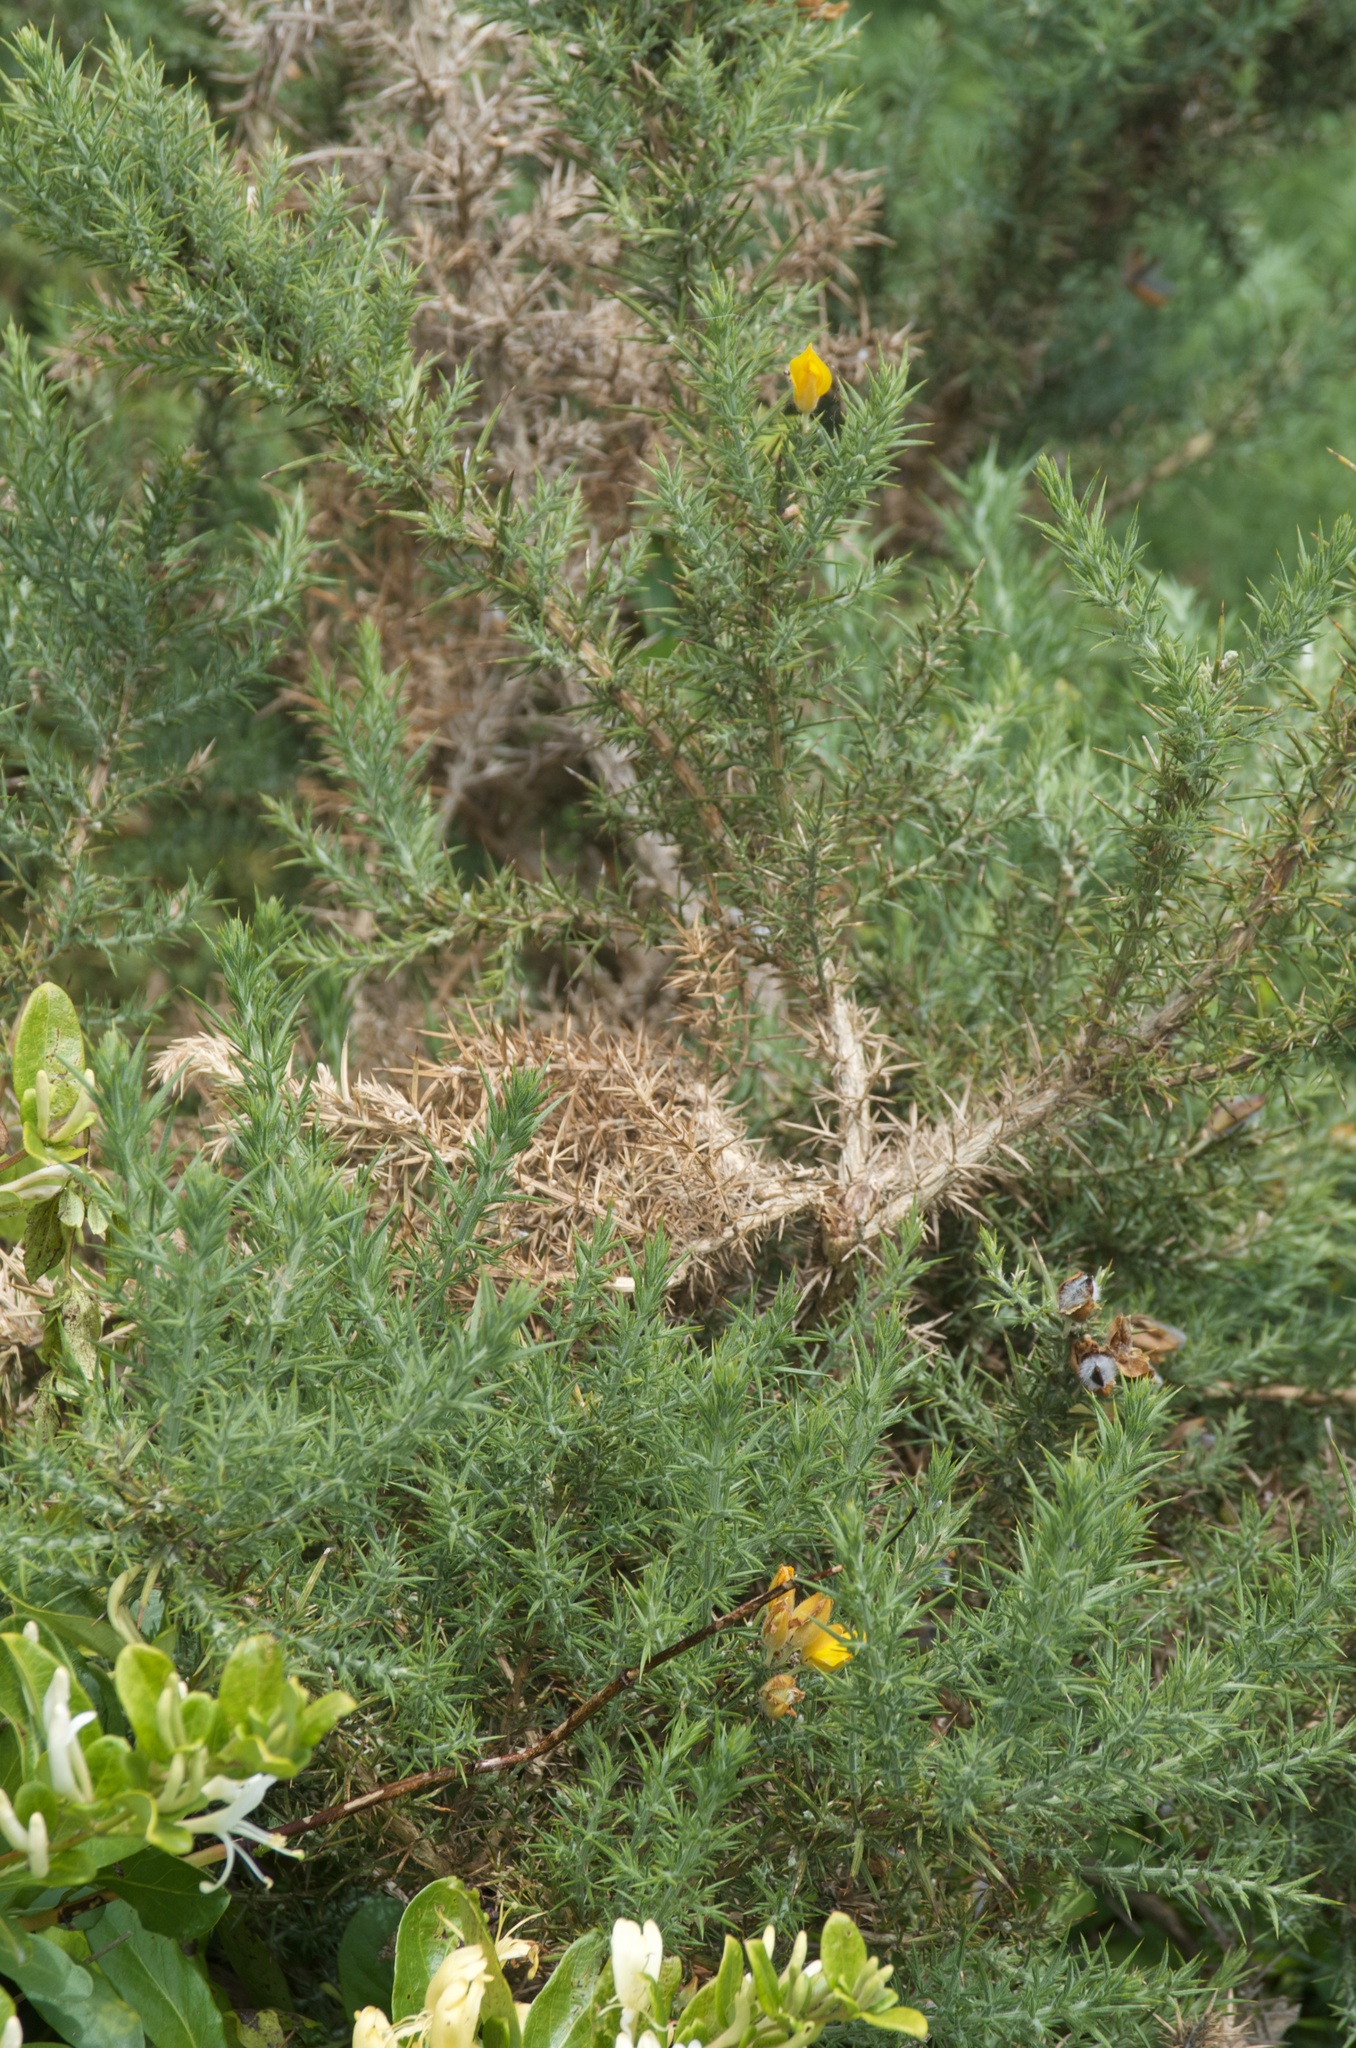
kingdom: Plantae
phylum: Tracheophyta
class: Magnoliopsida
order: Fabales
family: Fabaceae
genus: Ulex
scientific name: Ulex europaeus
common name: Common gorse
